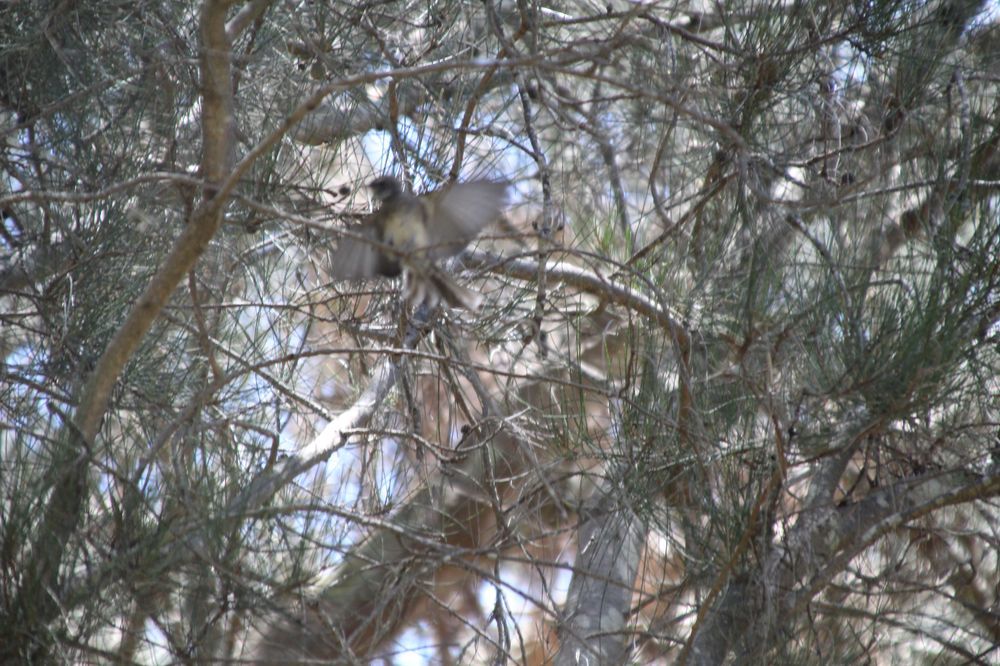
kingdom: Animalia
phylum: Chordata
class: Aves
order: Passeriformes
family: Rhipiduridae
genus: Rhipidura
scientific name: Rhipidura albiscapa
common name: Grey fantail
